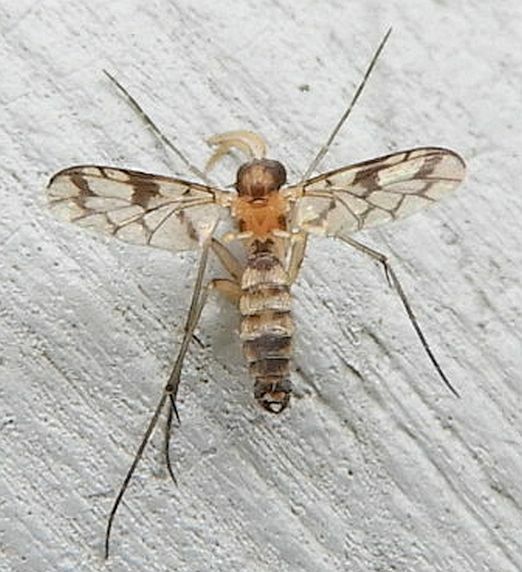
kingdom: Animalia
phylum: Arthropoda
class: Insecta
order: Diptera
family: Keroplatidae
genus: Proceroplatus
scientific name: Proceroplatus
